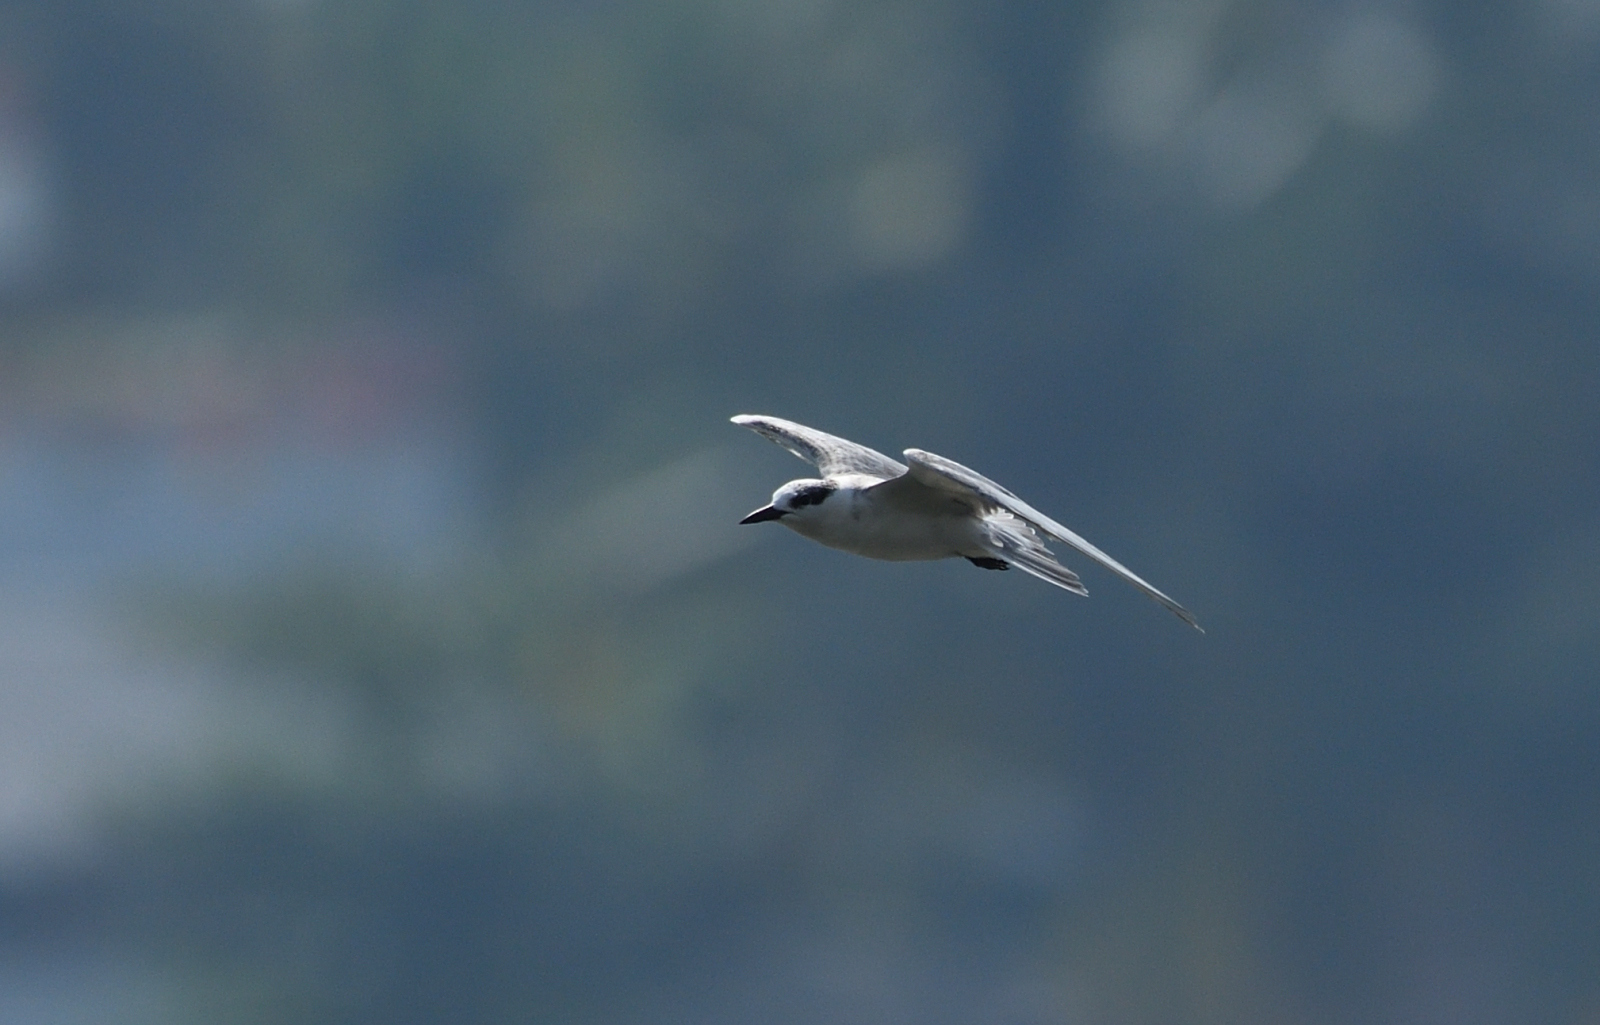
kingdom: Animalia
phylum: Chordata
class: Aves
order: Charadriiformes
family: Laridae
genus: Gelochelidon
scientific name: Gelochelidon nilotica
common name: Gull-billed tern
